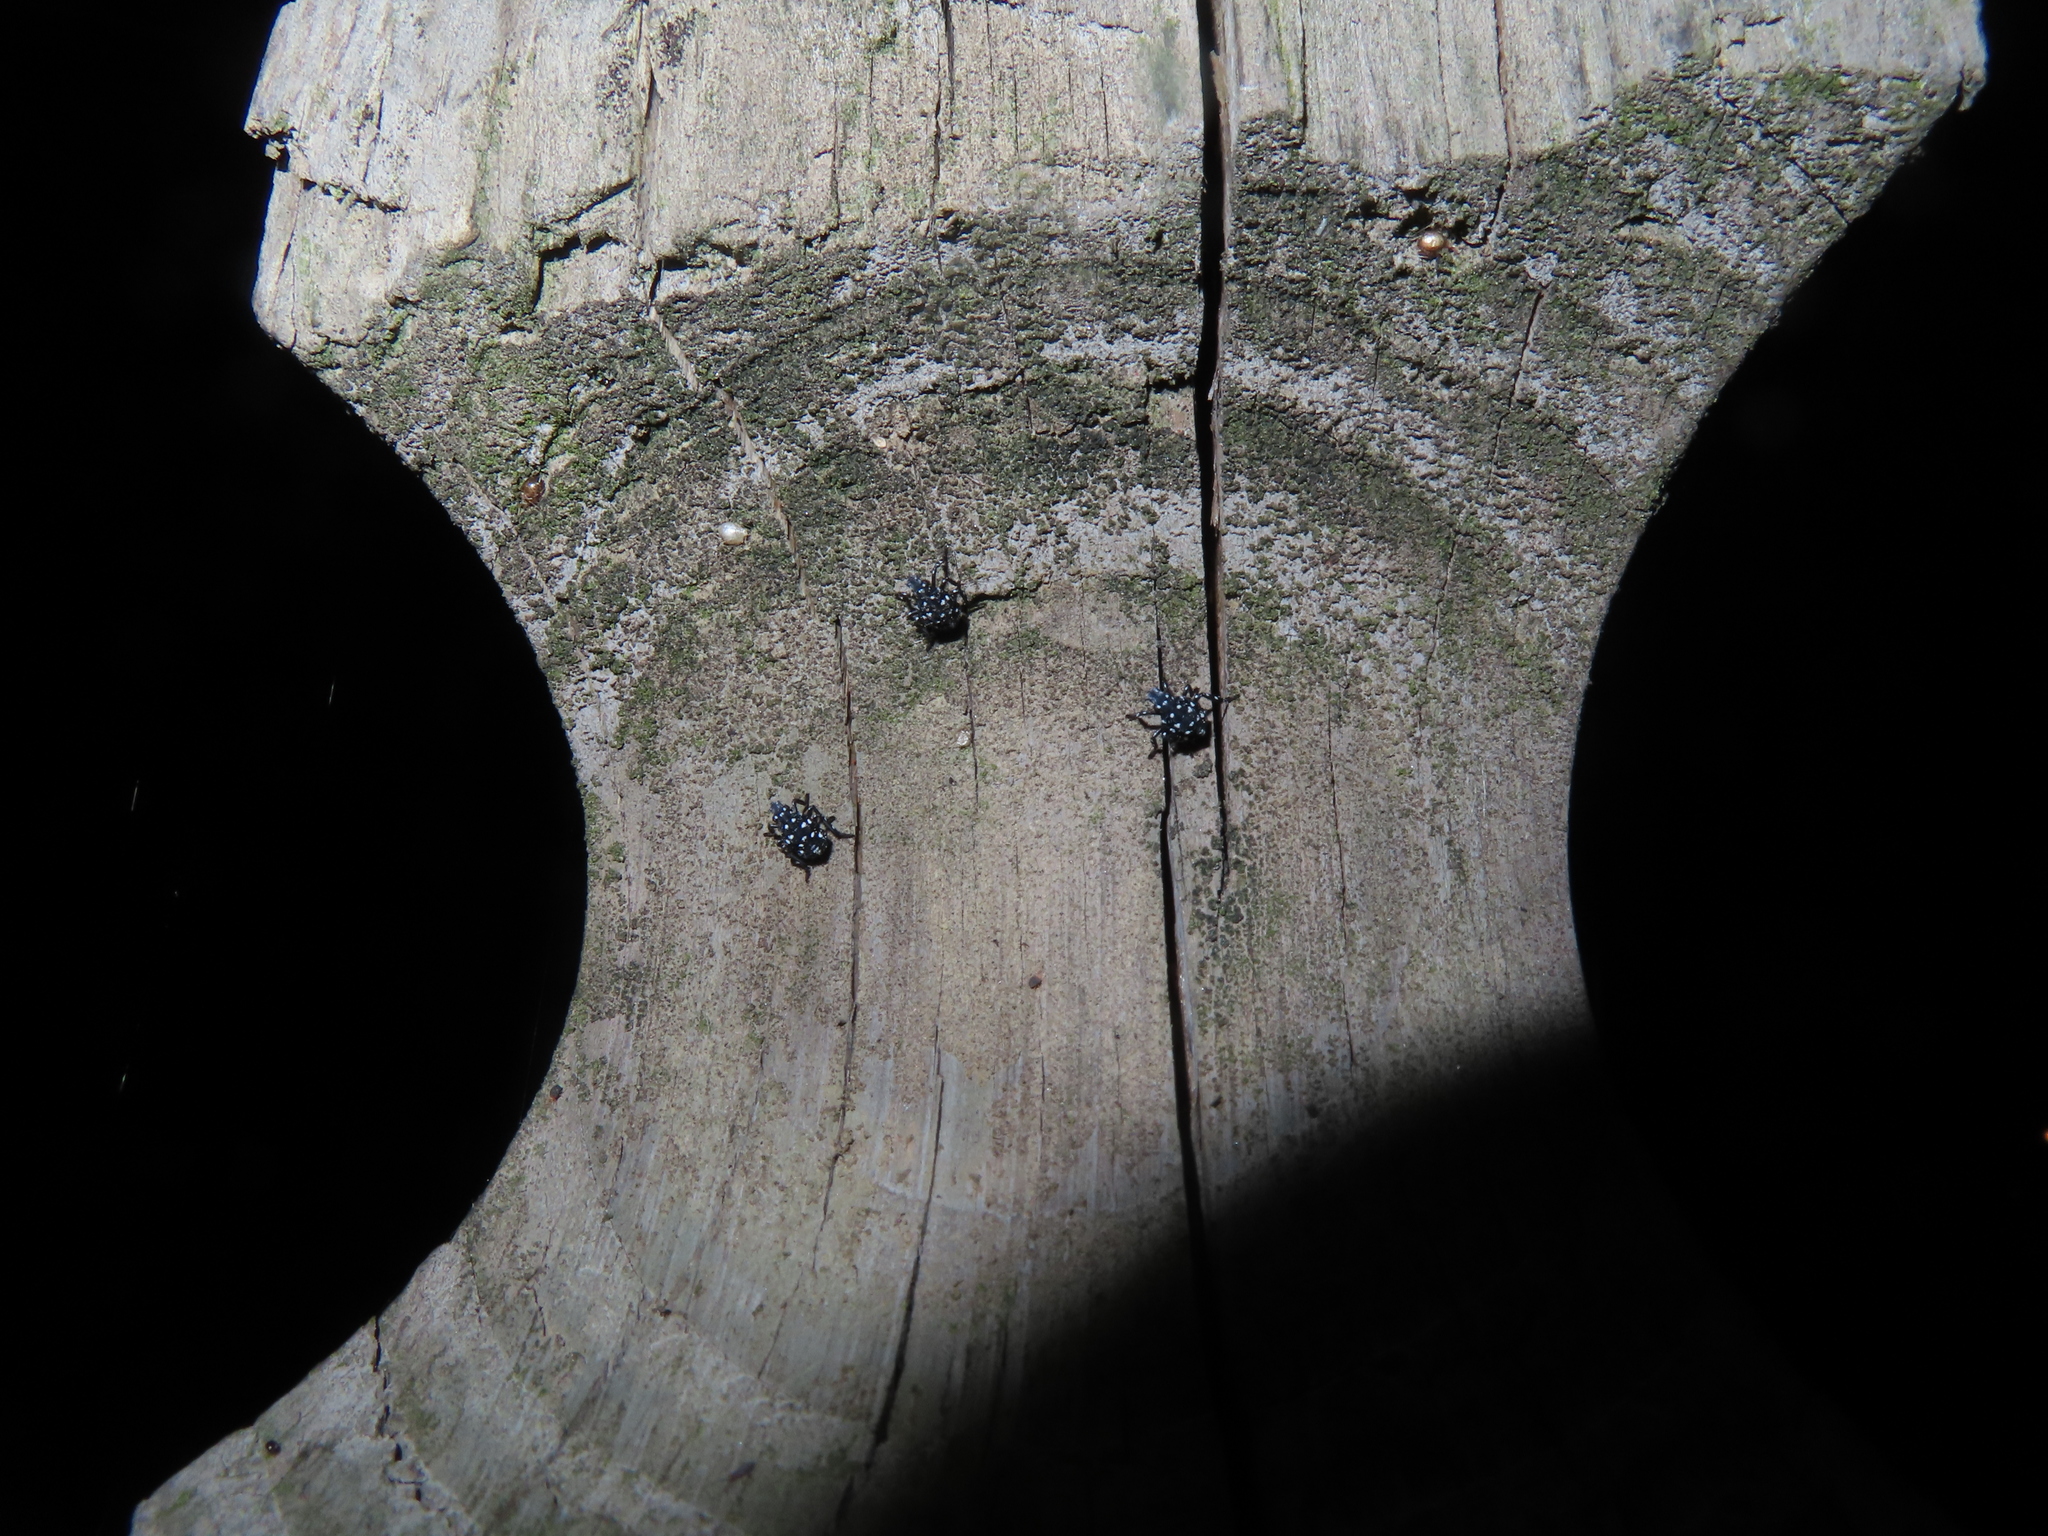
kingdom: Animalia
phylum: Arthropoda
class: Insecta
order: Hemiptera
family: Fulgoridae
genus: Lycorma
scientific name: Lycorma delicatula
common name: Spotted lanternfly
